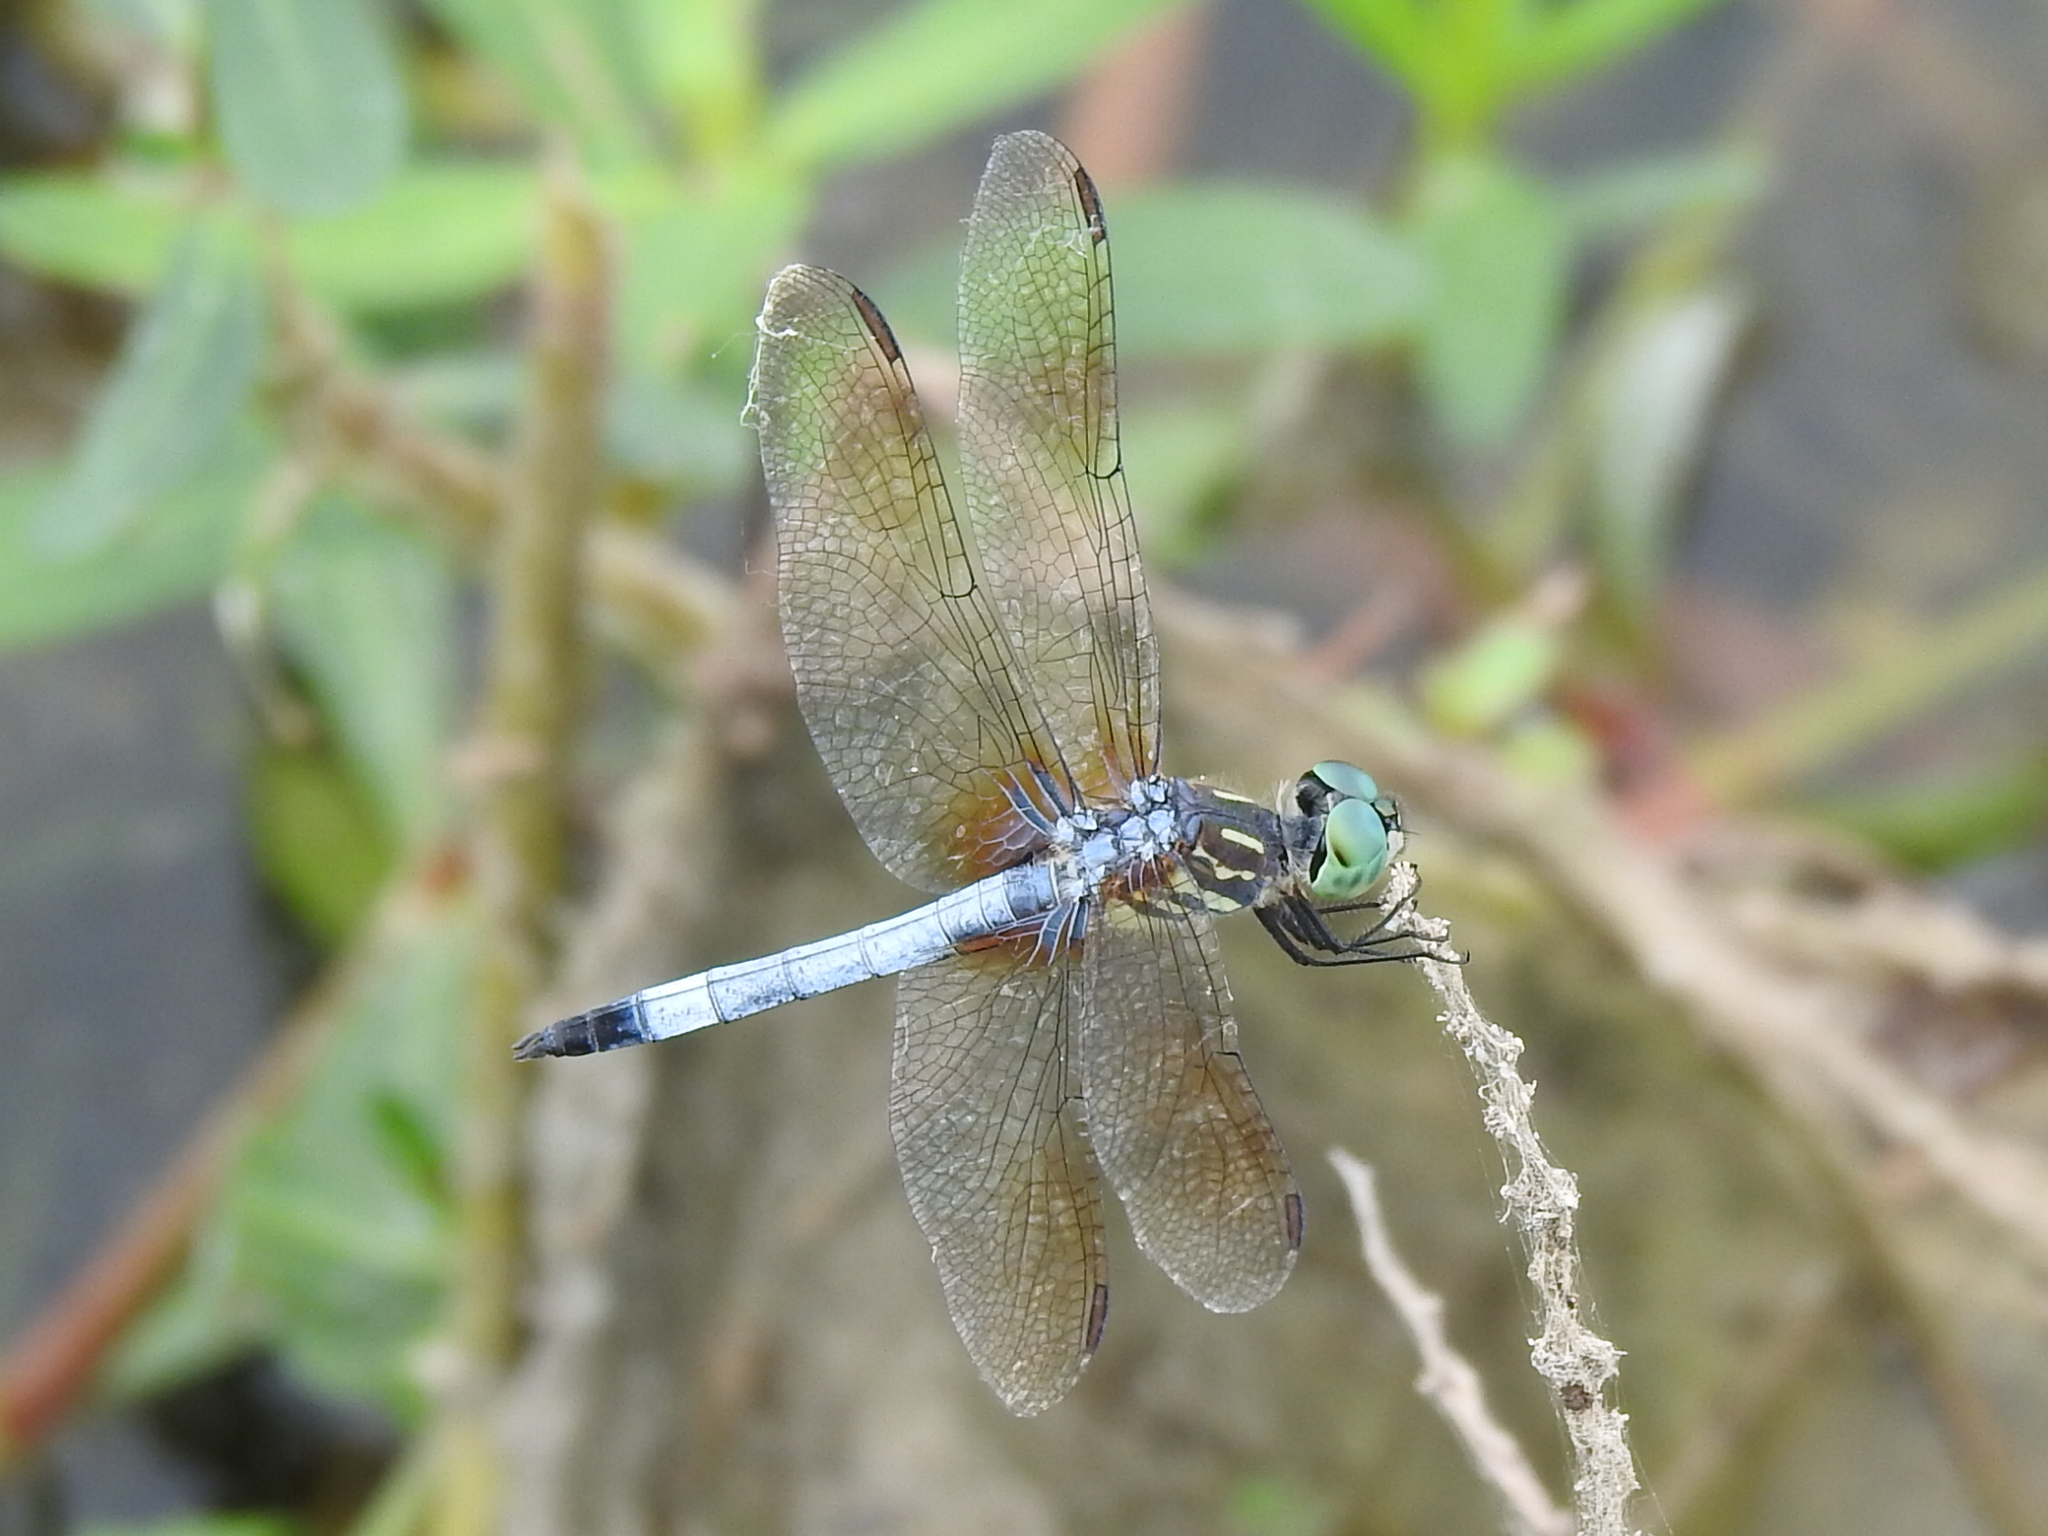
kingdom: Animalia
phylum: Arthropoda
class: Insecta
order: Odonata
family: Libellulidae
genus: Pachydiplax
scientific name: Pachydiplax longipennis
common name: Blue dasher
